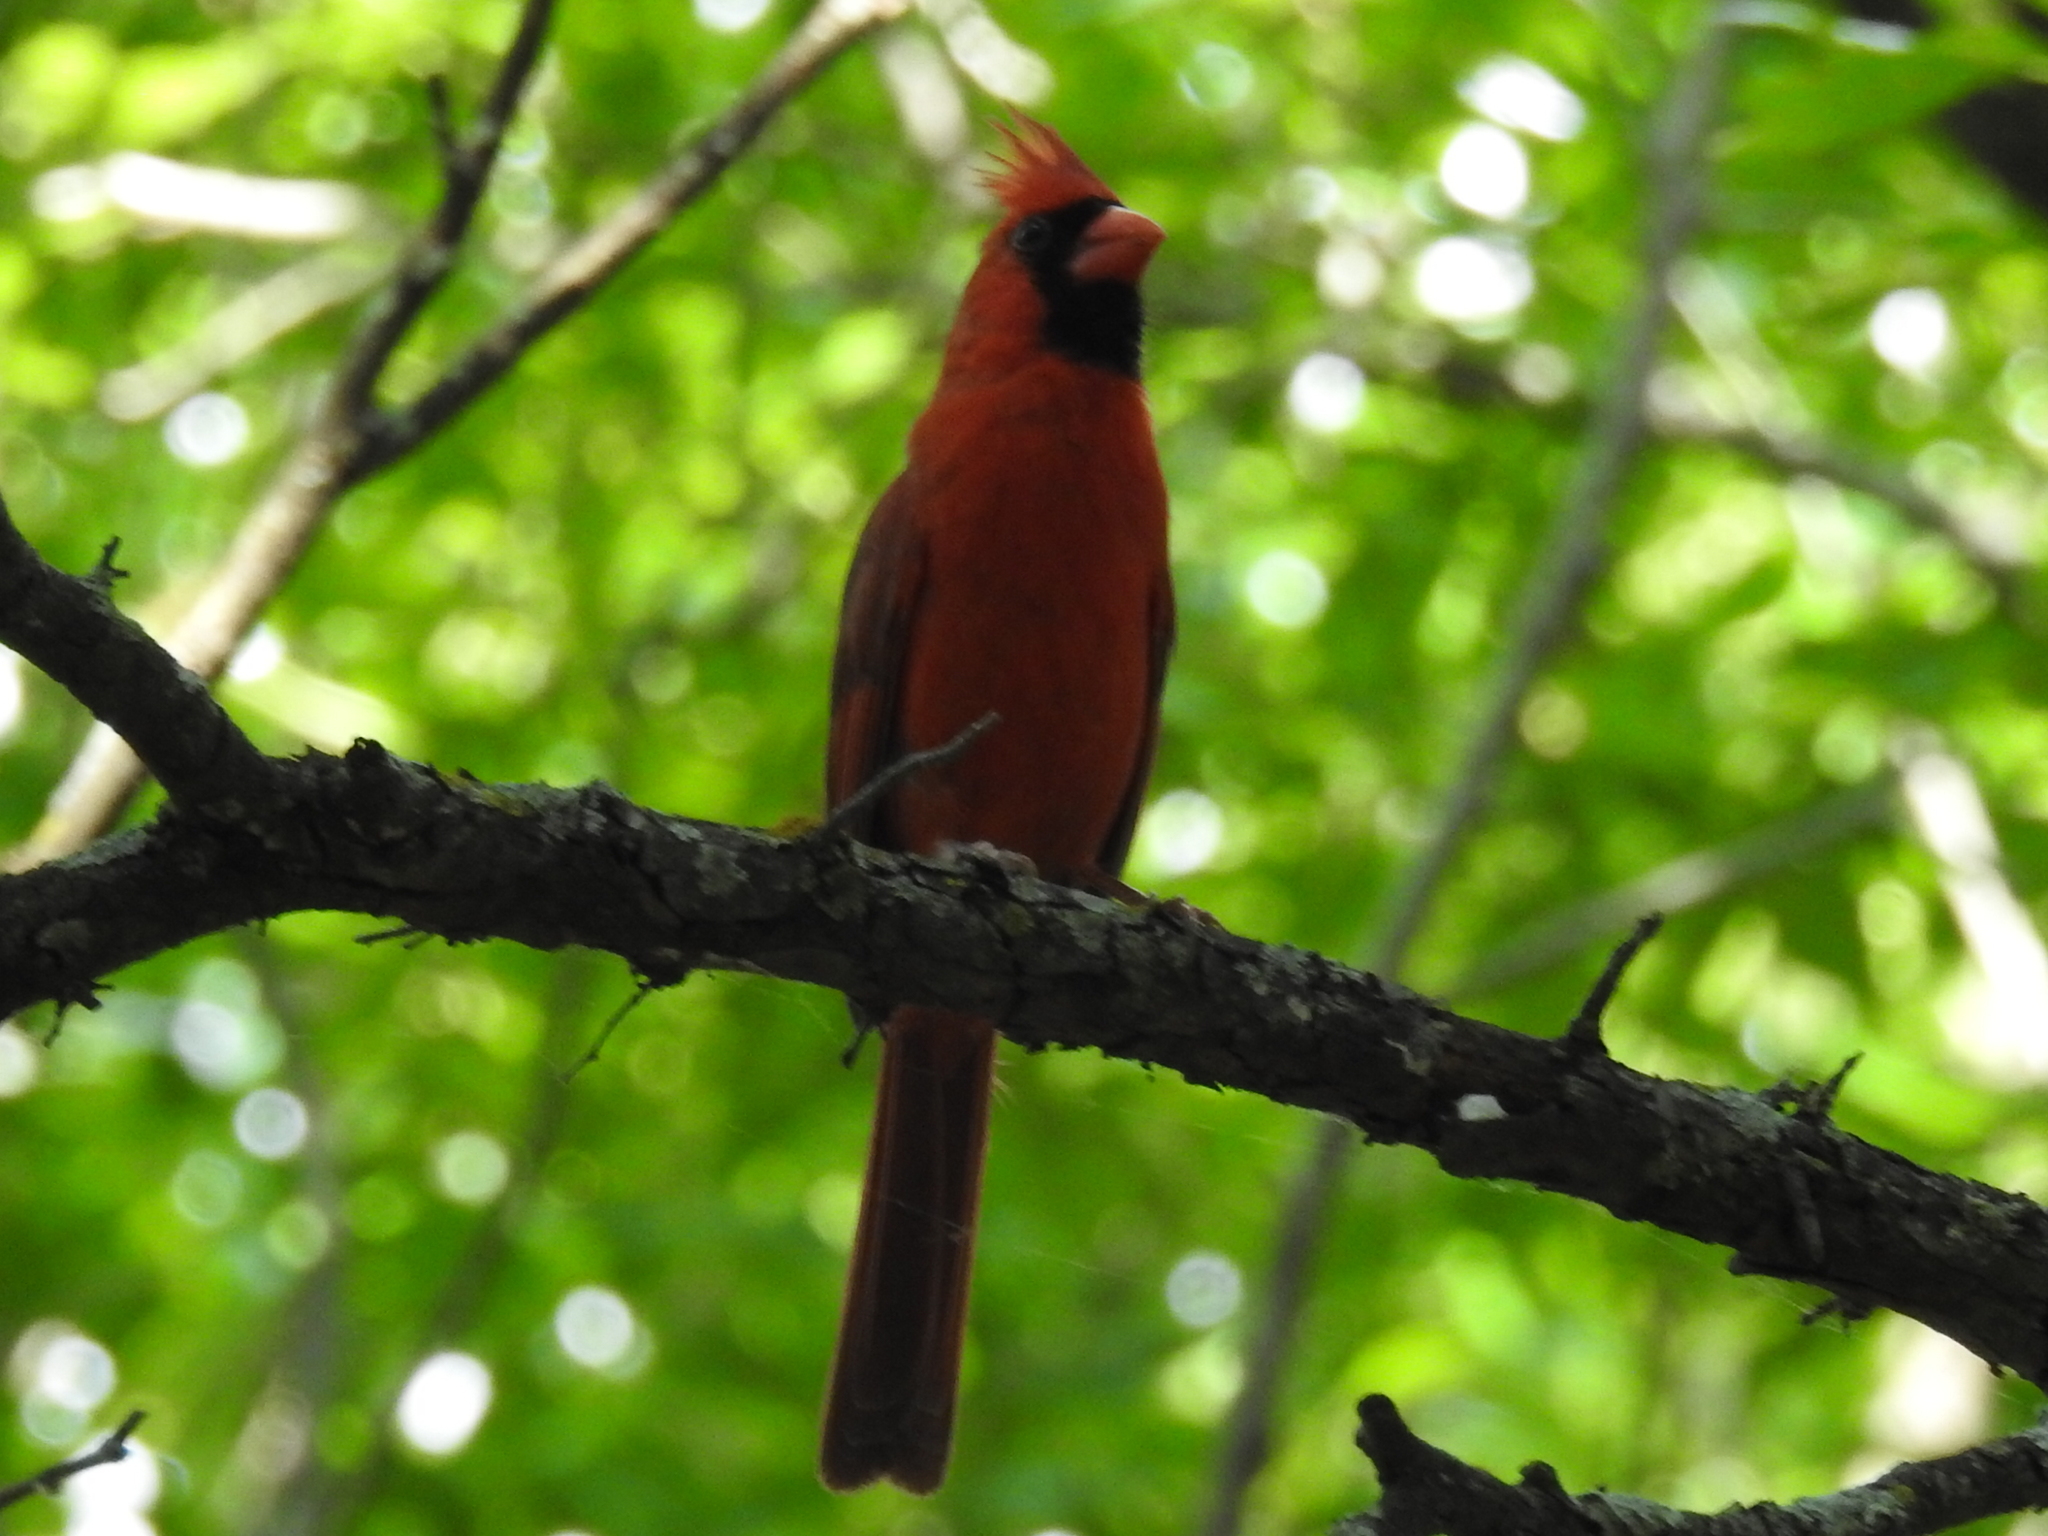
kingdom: Animalia
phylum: Chordata
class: Aves
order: Passeriformes
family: Cardinalidae
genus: Cardinalis
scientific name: Cardinalis cardinalis
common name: Northern cardinal
